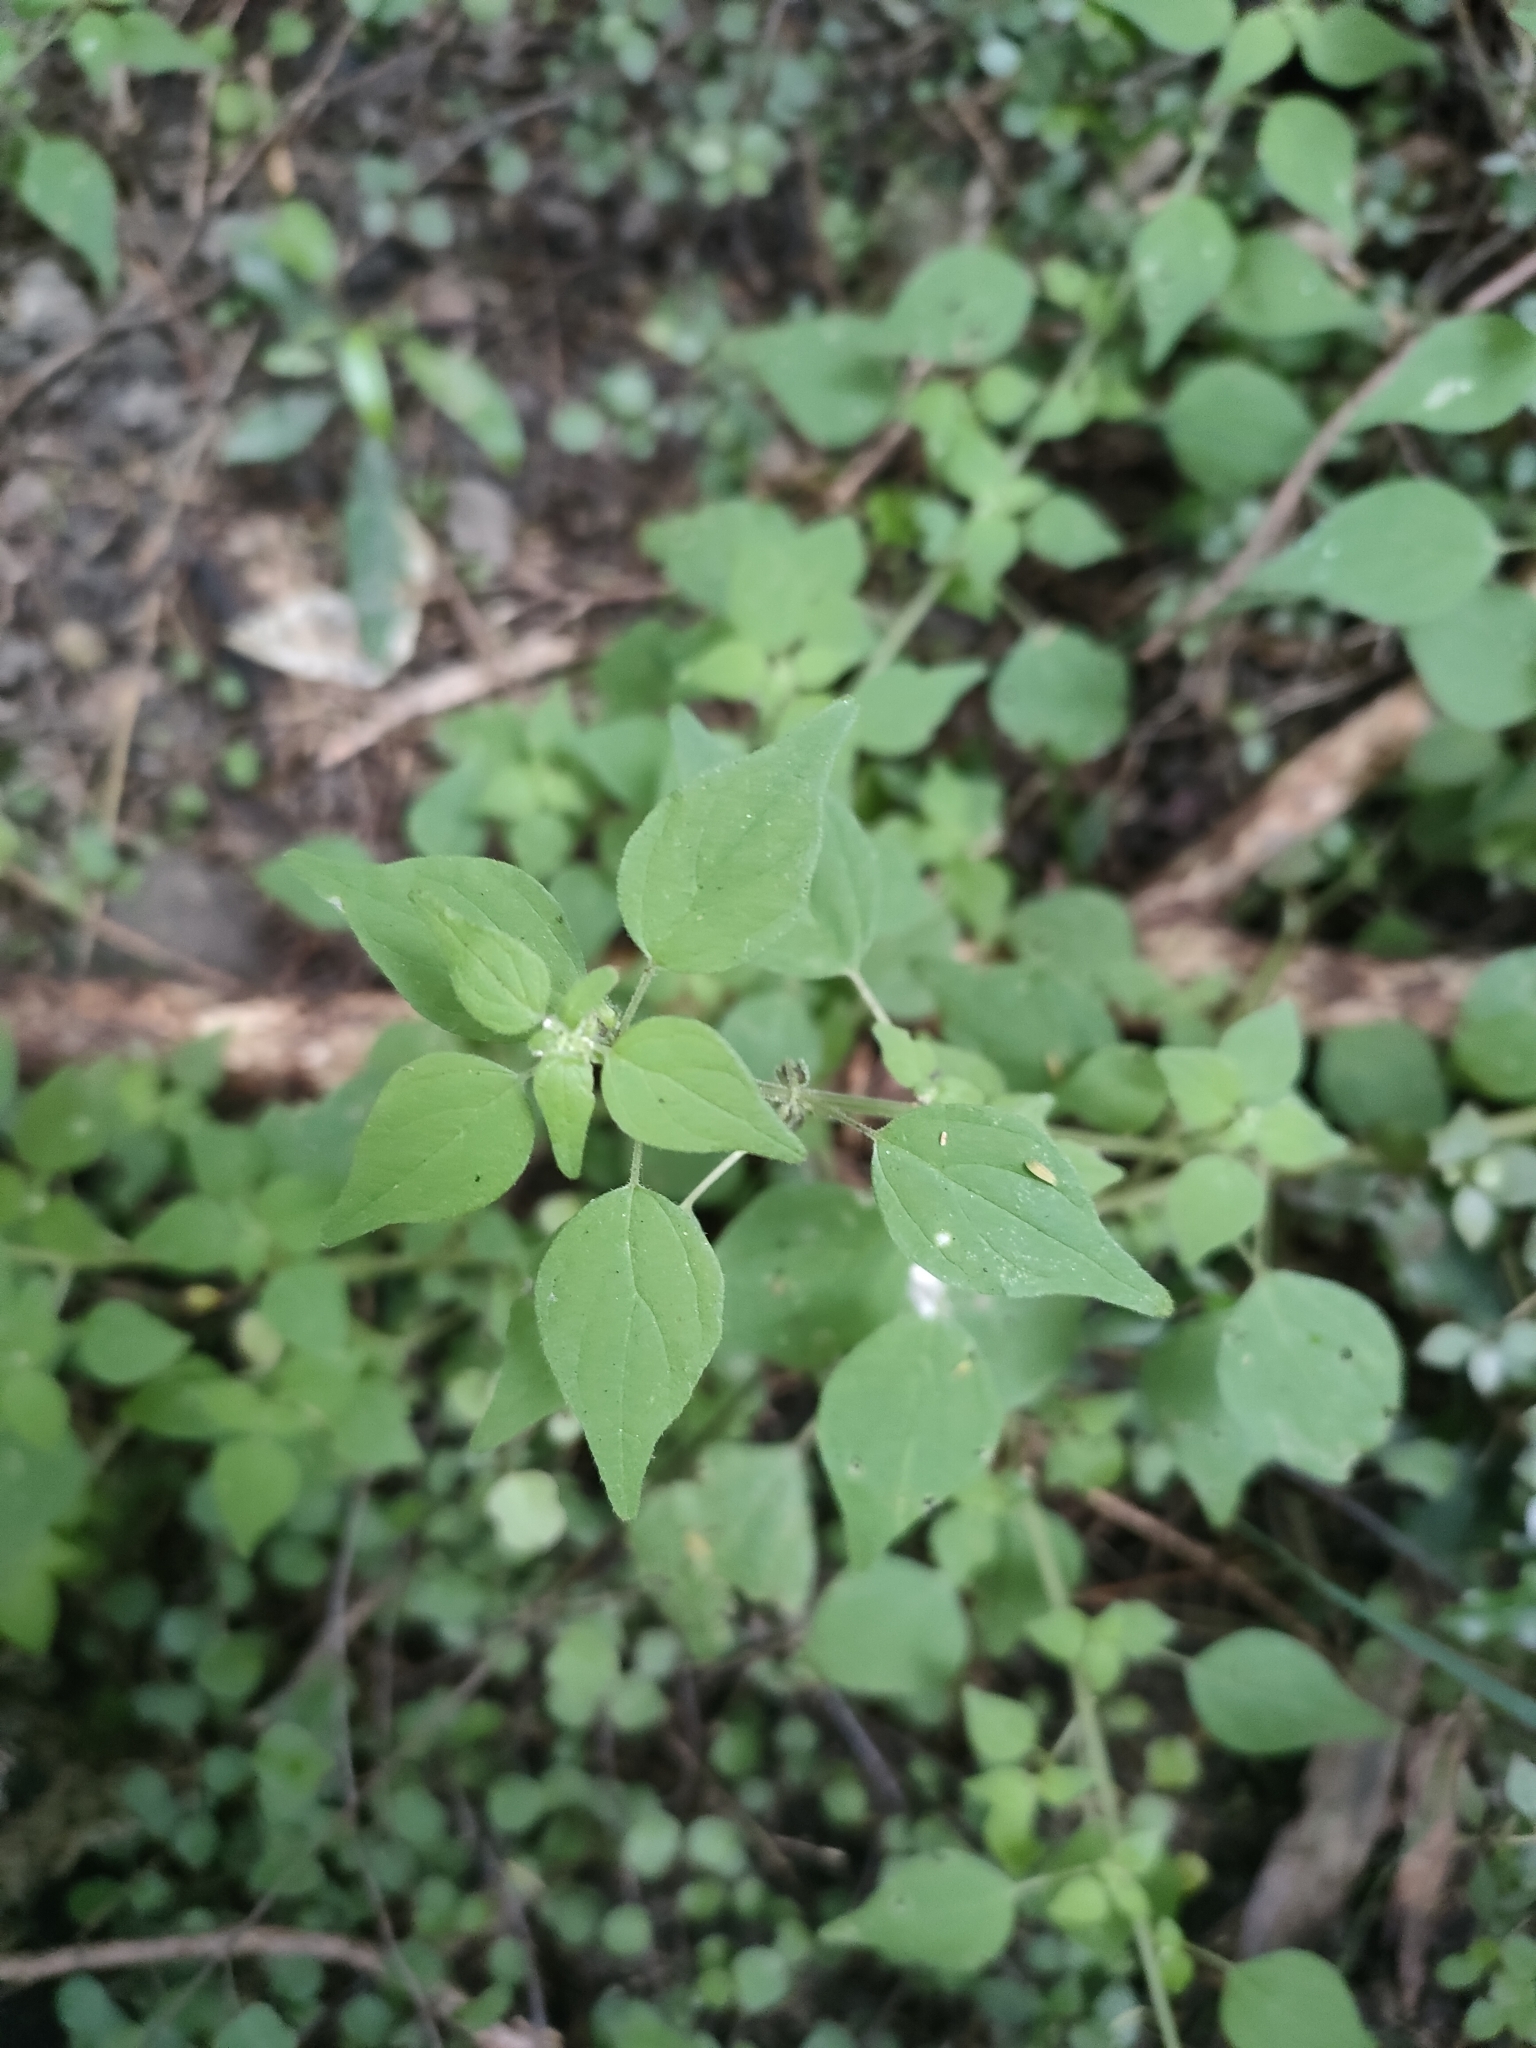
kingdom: Plantae
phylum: Tracheophyta
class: Magnoliopsida
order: Rosales
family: Urticaceae
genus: Parietaria
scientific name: Parietaria debilis
